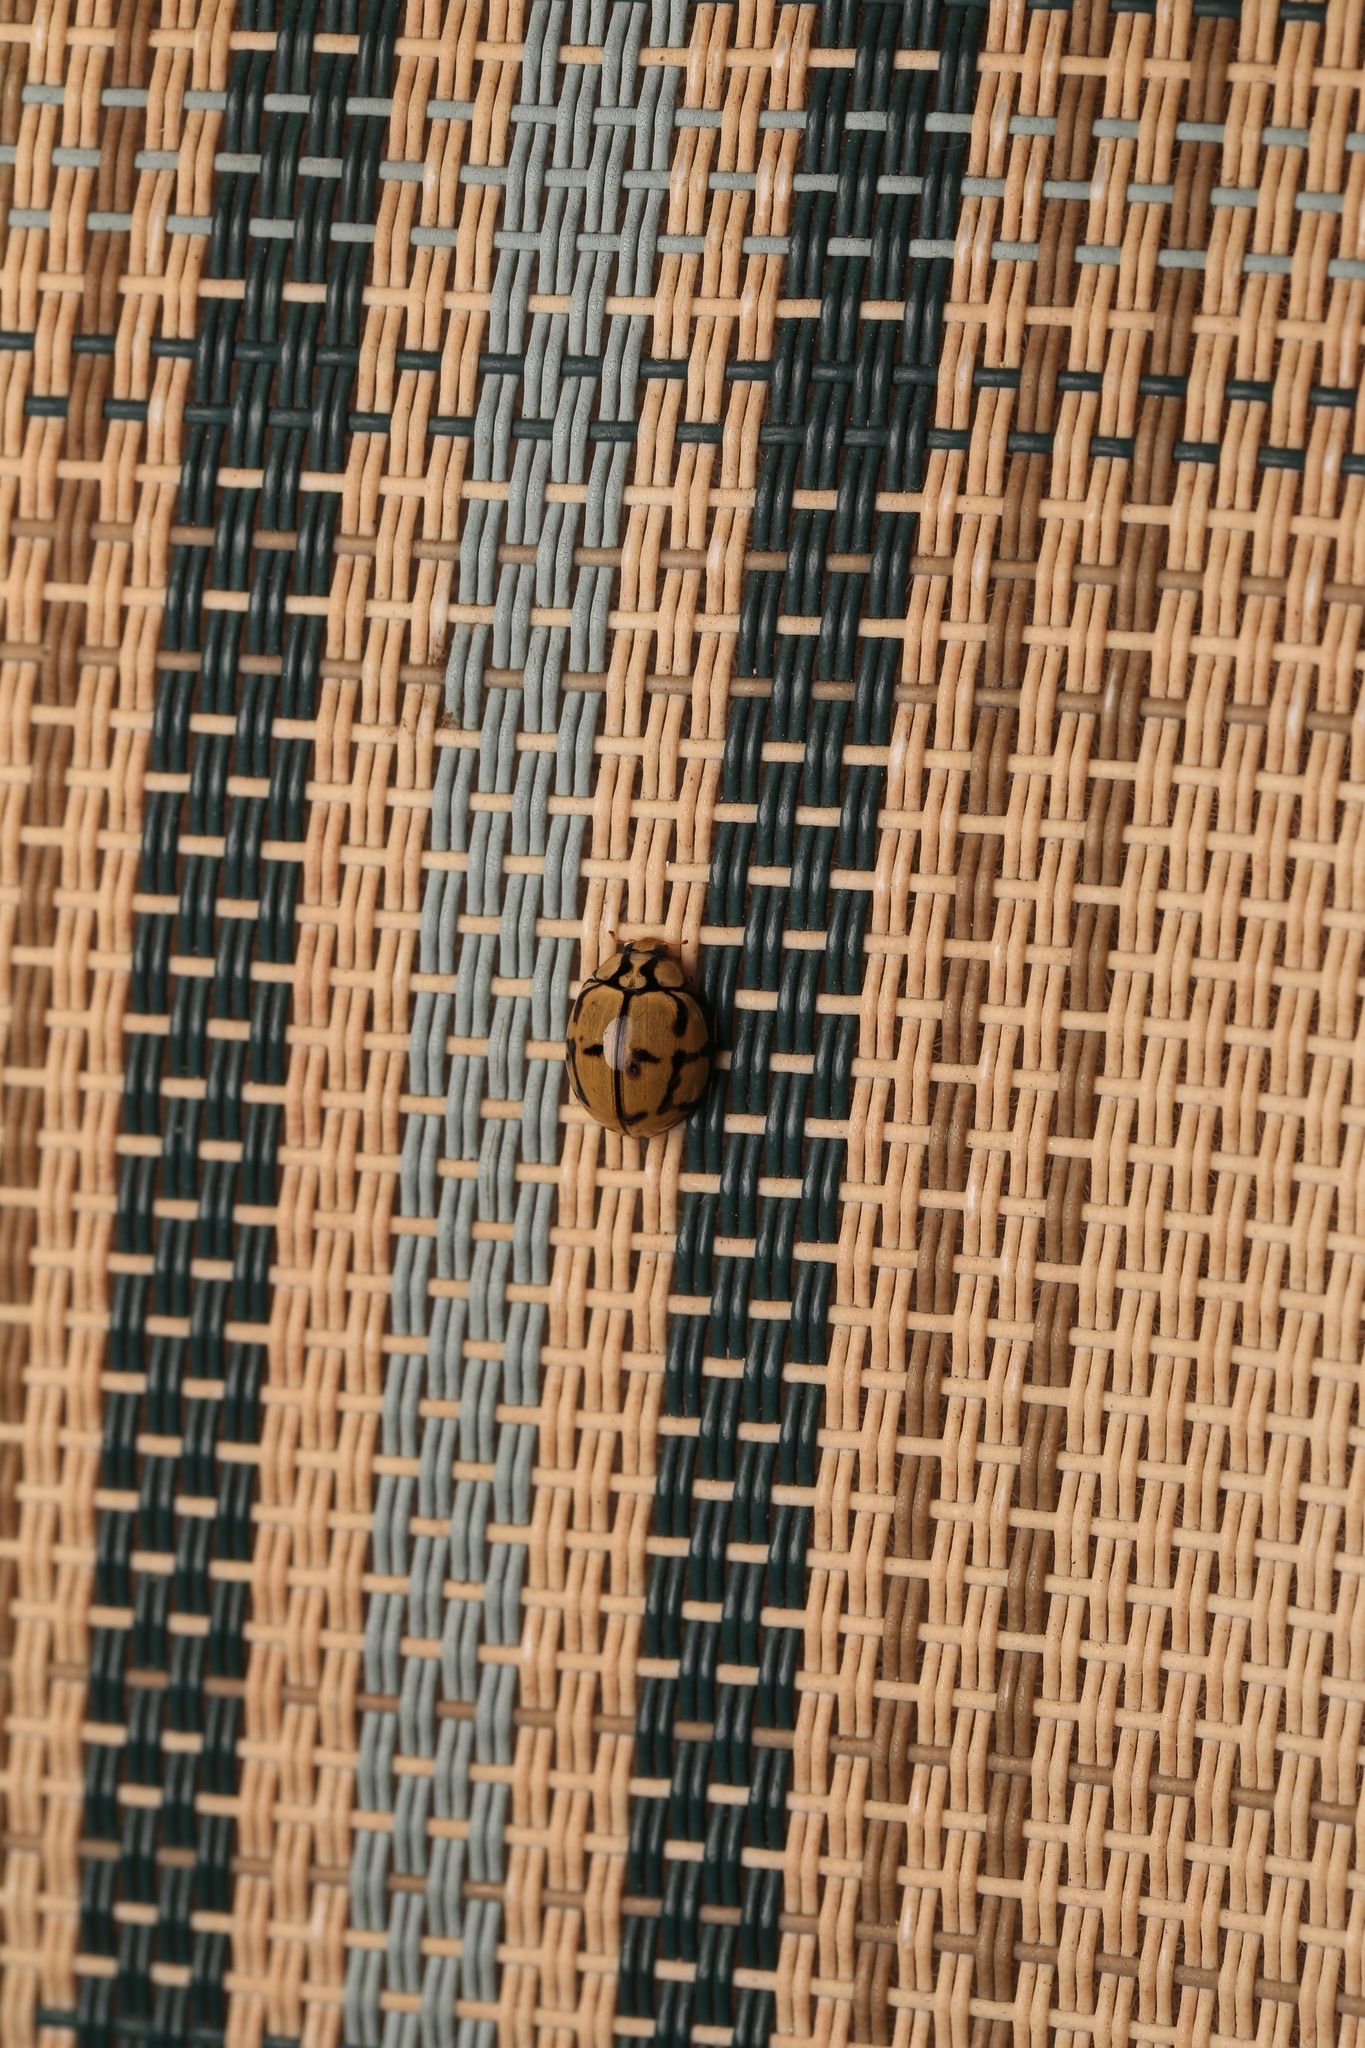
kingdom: Animalia
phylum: Arthropoda
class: Insecta
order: Coleoptera
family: Coccinellidae
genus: Harmonia
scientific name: Harmonia
